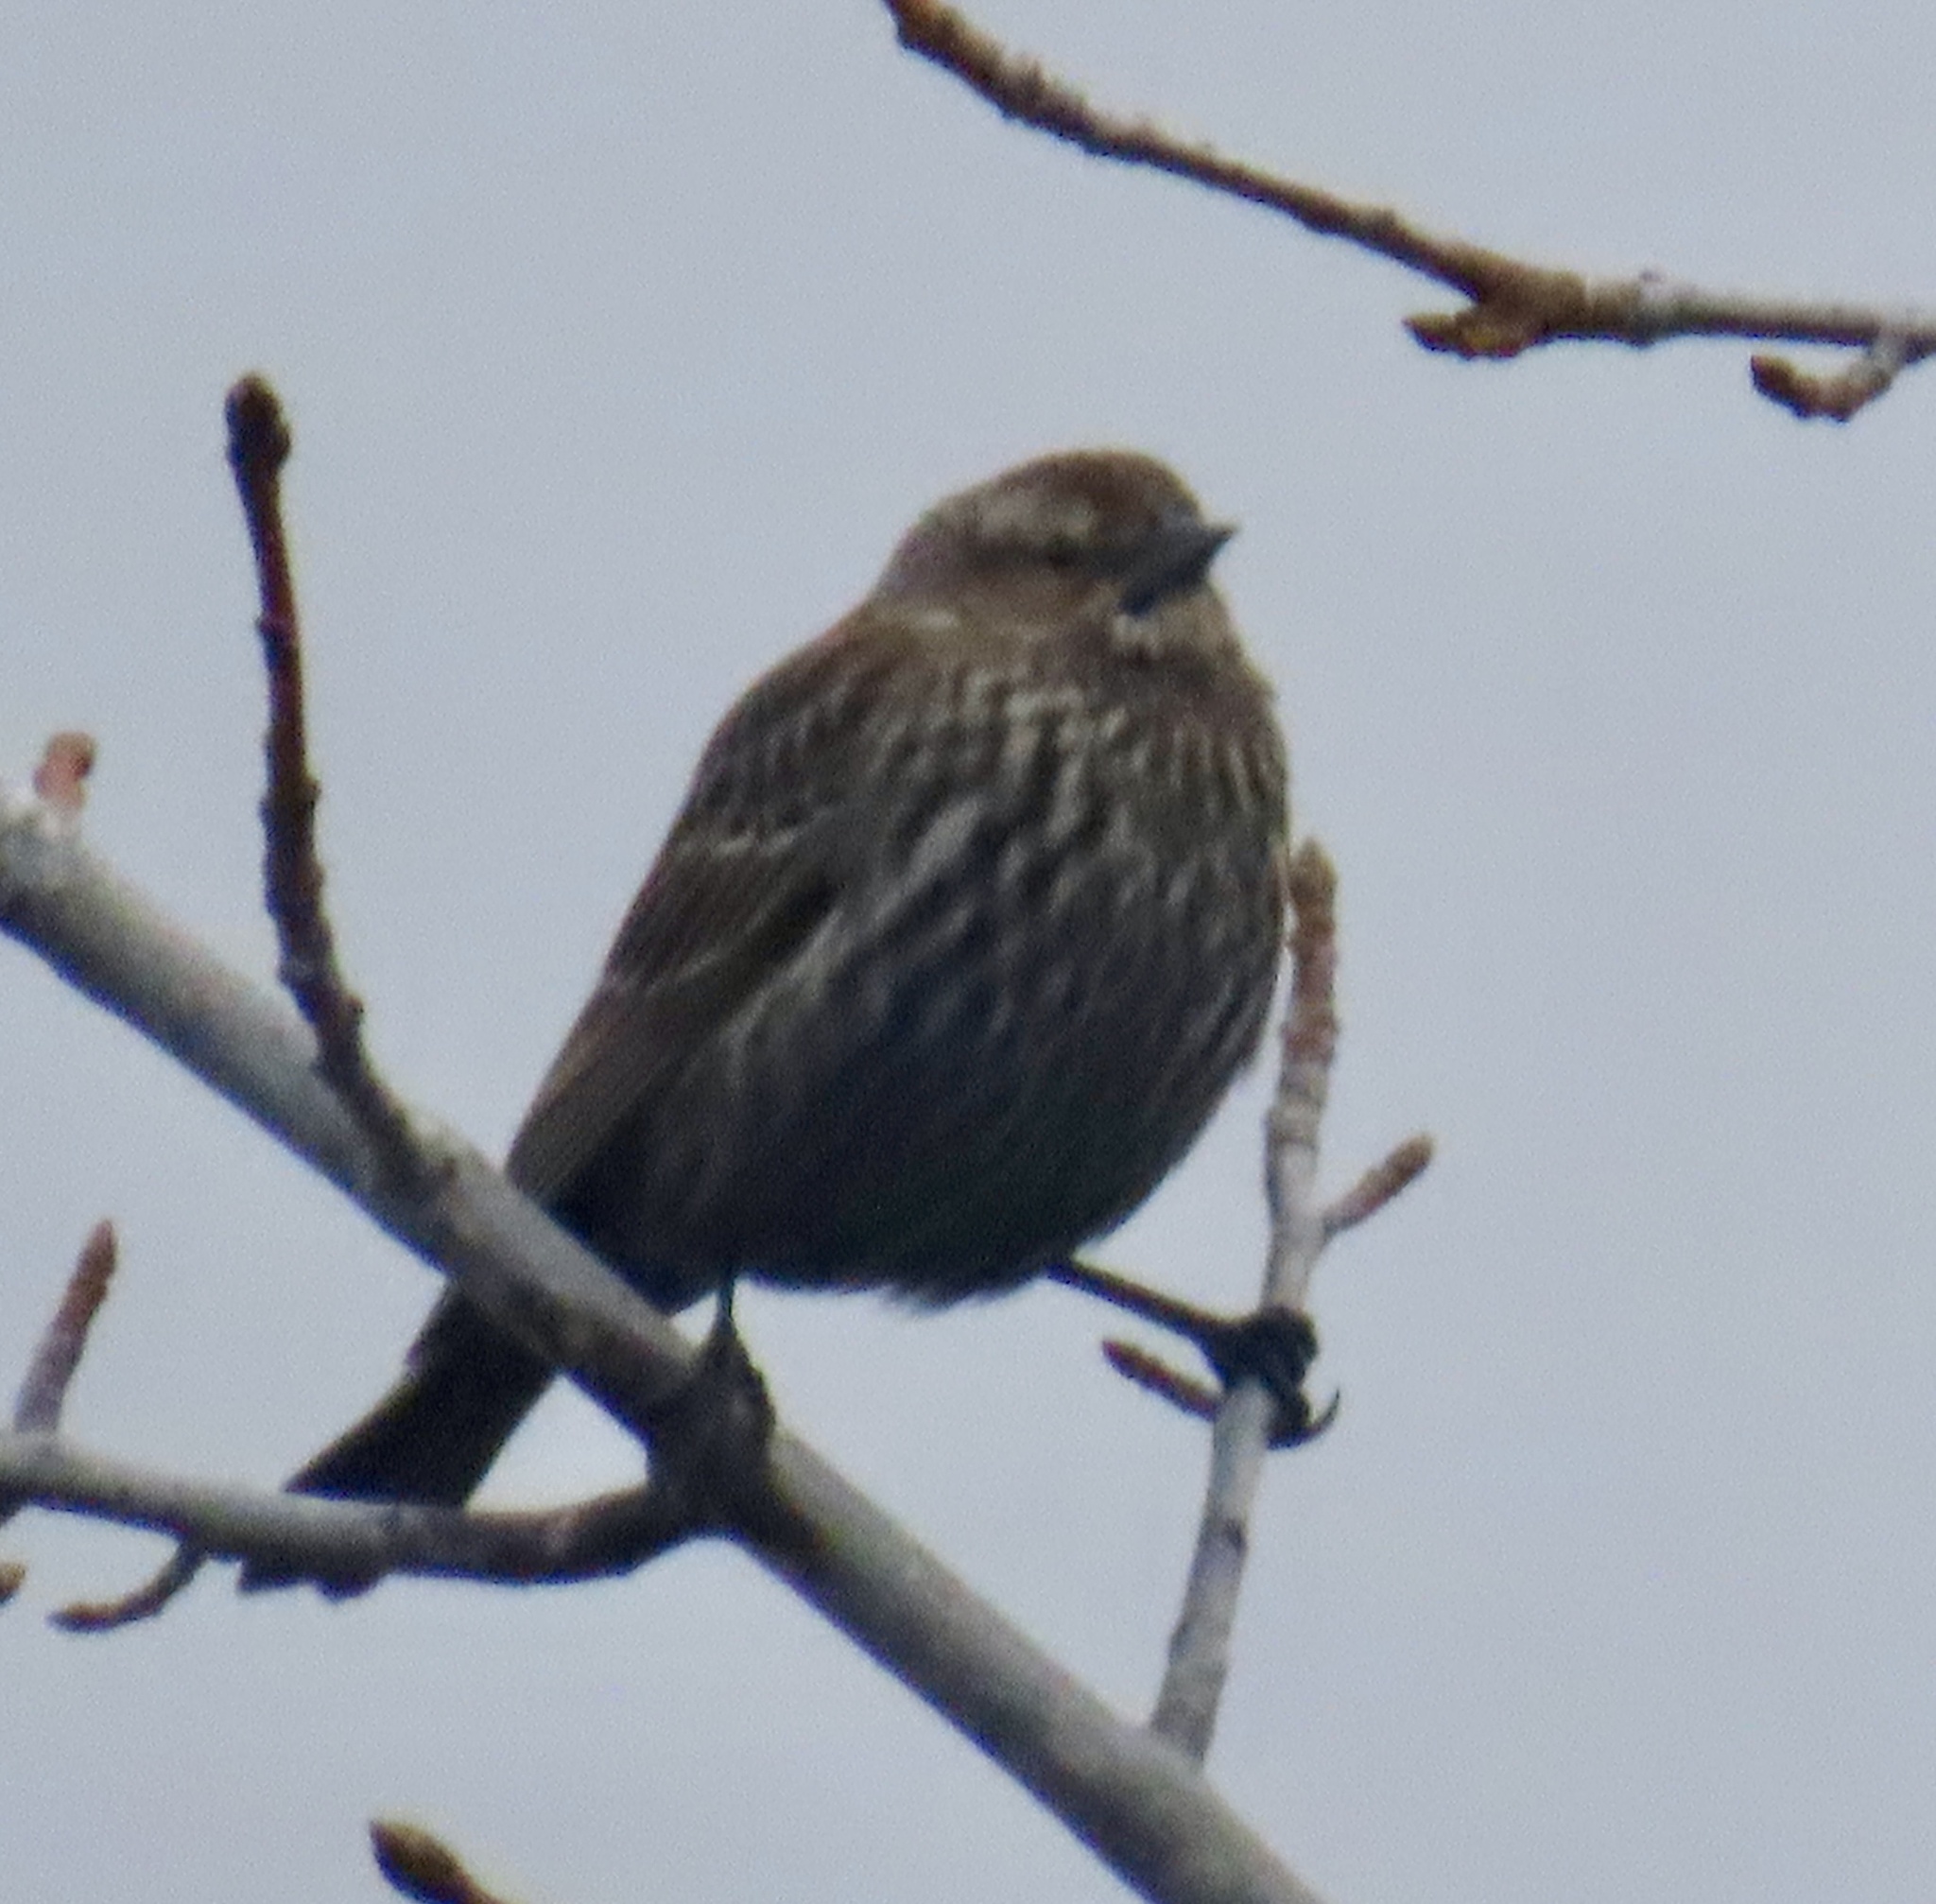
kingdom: Animalia
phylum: Chordata
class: Aves
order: Passeriformes
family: Icteridae
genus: Agelaius
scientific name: Agelaius tricolor
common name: Tricolored blackbird
